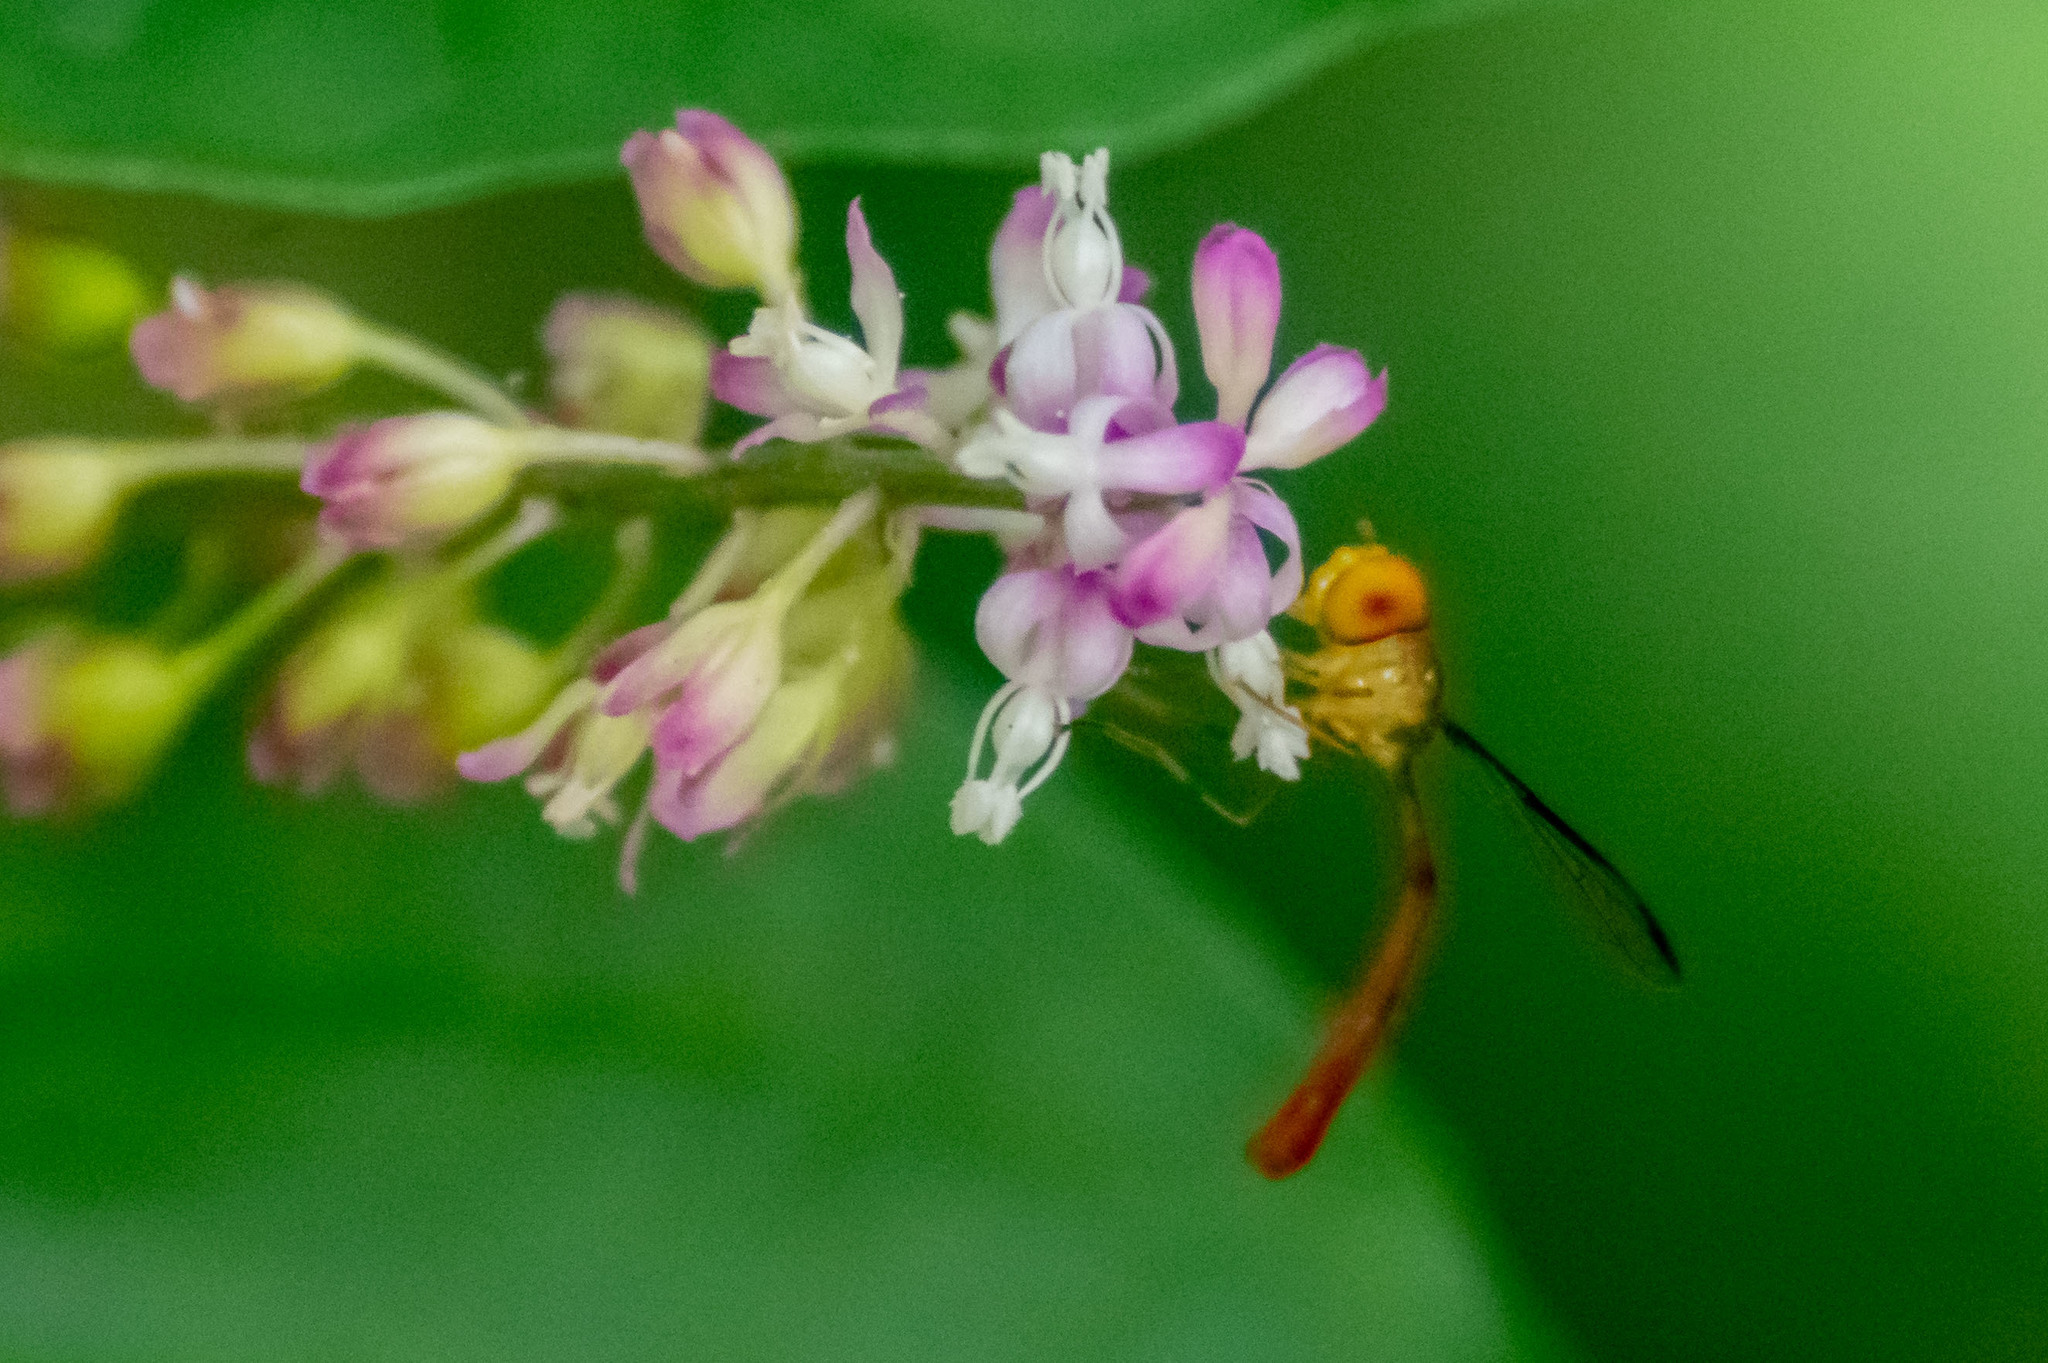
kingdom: Animalia
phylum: Arthropoda
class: Insecta
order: Diptera
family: Syrphidae
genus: Victoriana
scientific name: Victoriana parvicornis
